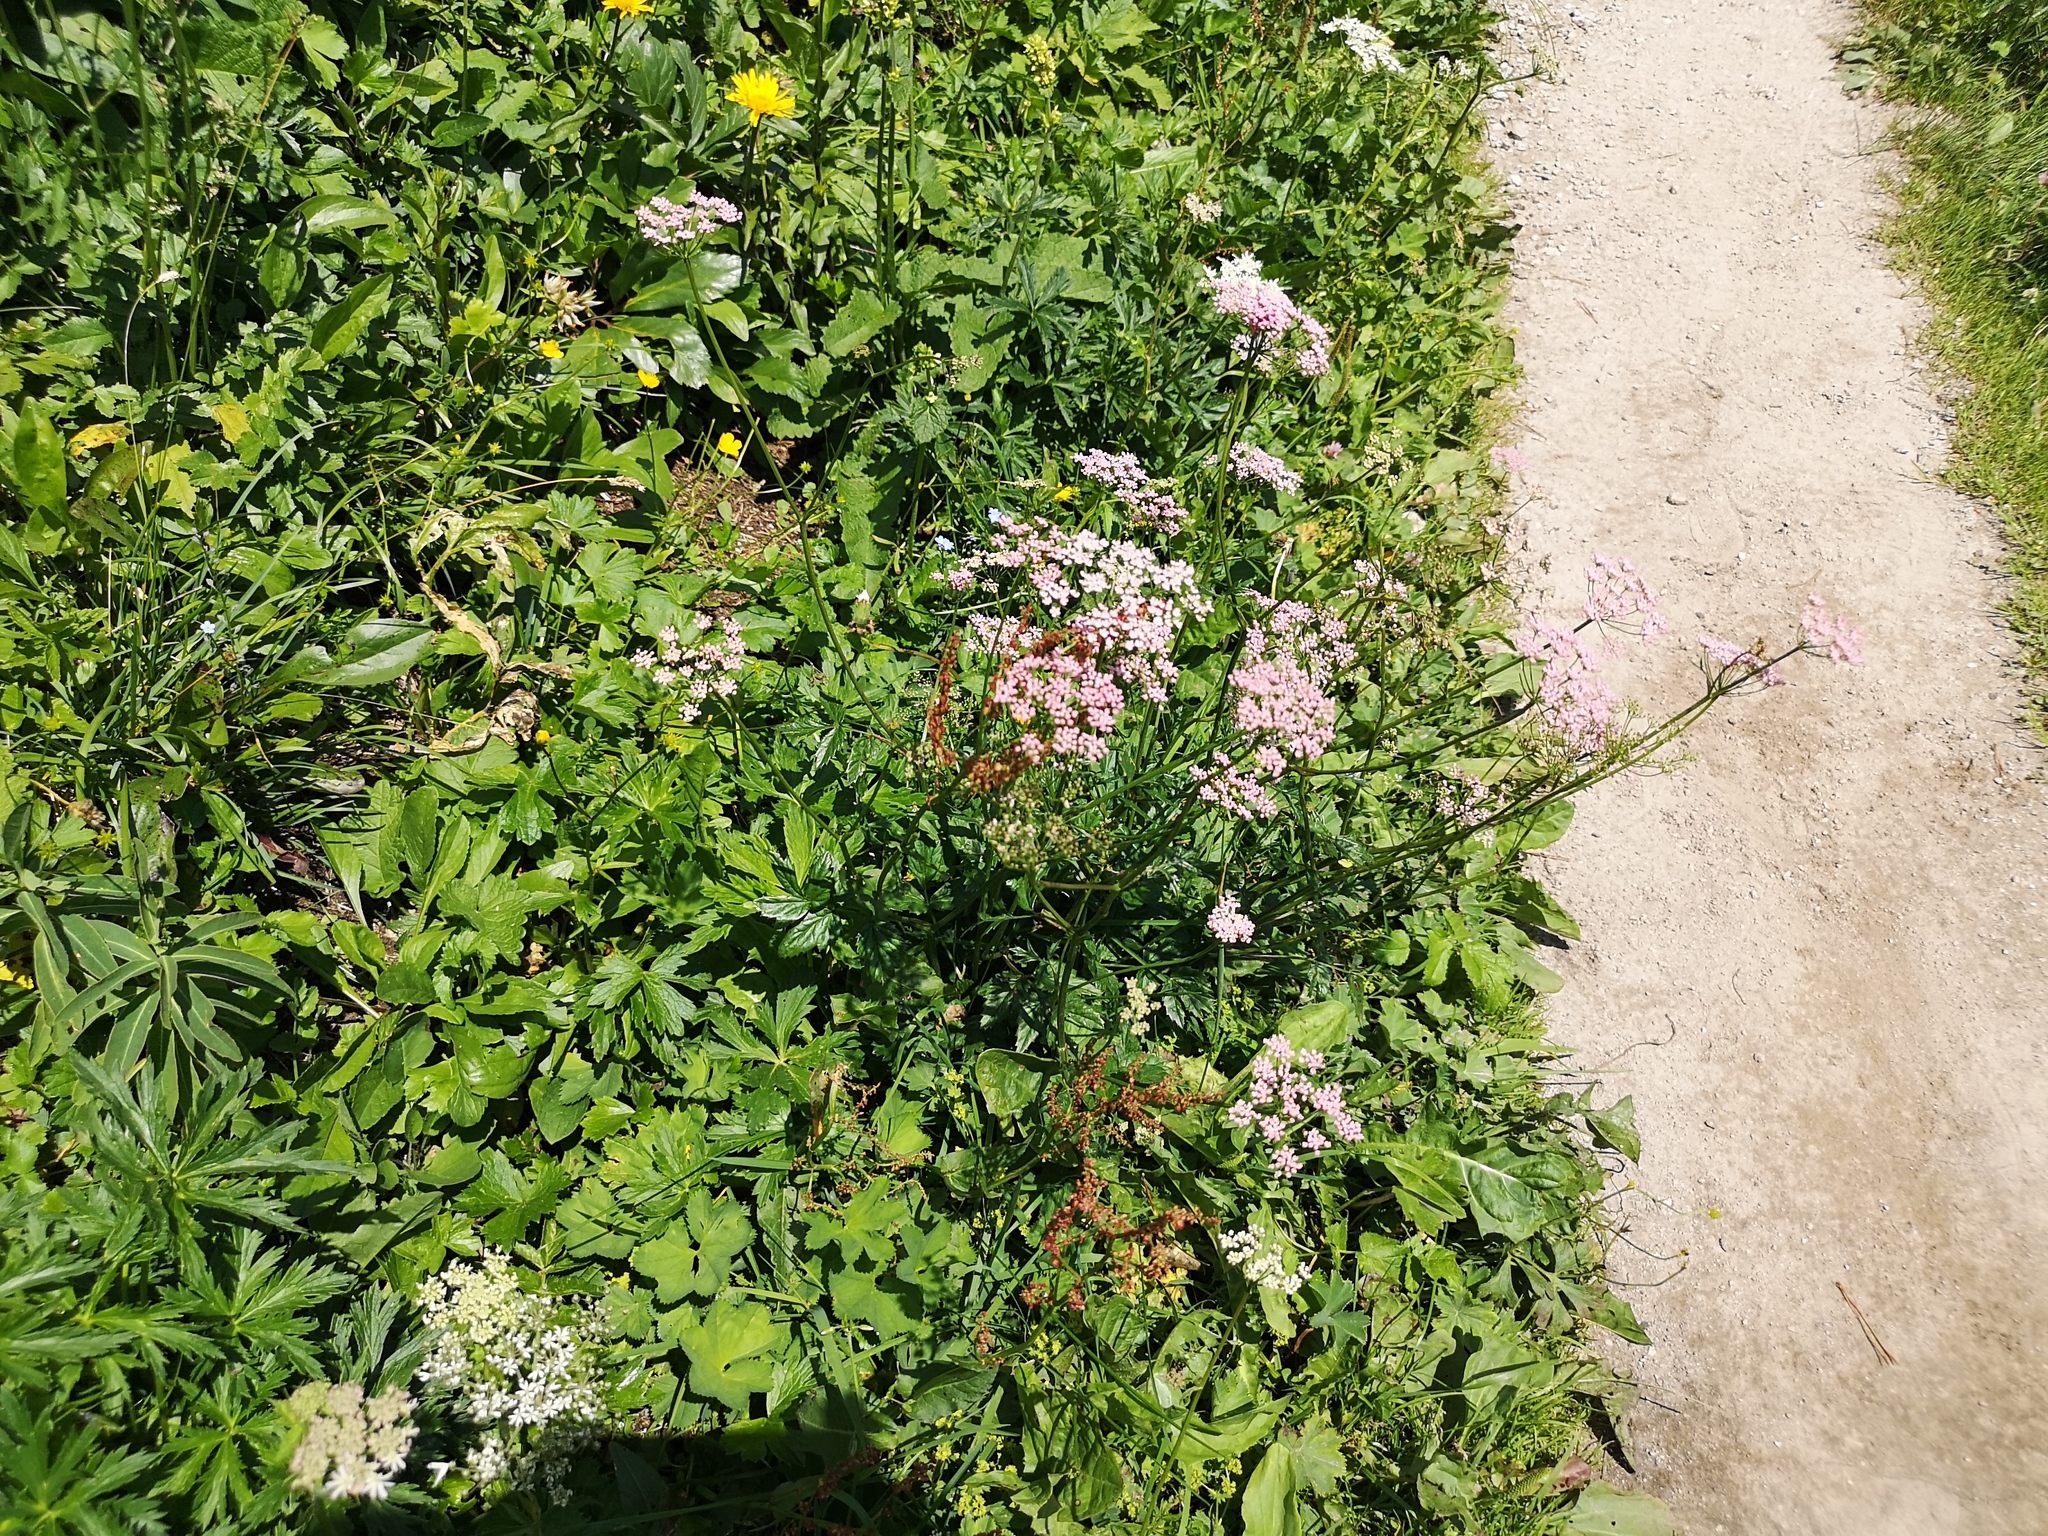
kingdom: Plantae
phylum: Tracheophyta
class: Magnoliopsida
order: Apiales
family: Apiaceae
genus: Pimpinella
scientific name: Pimpinella major
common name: Greater burnet-saxifrage
